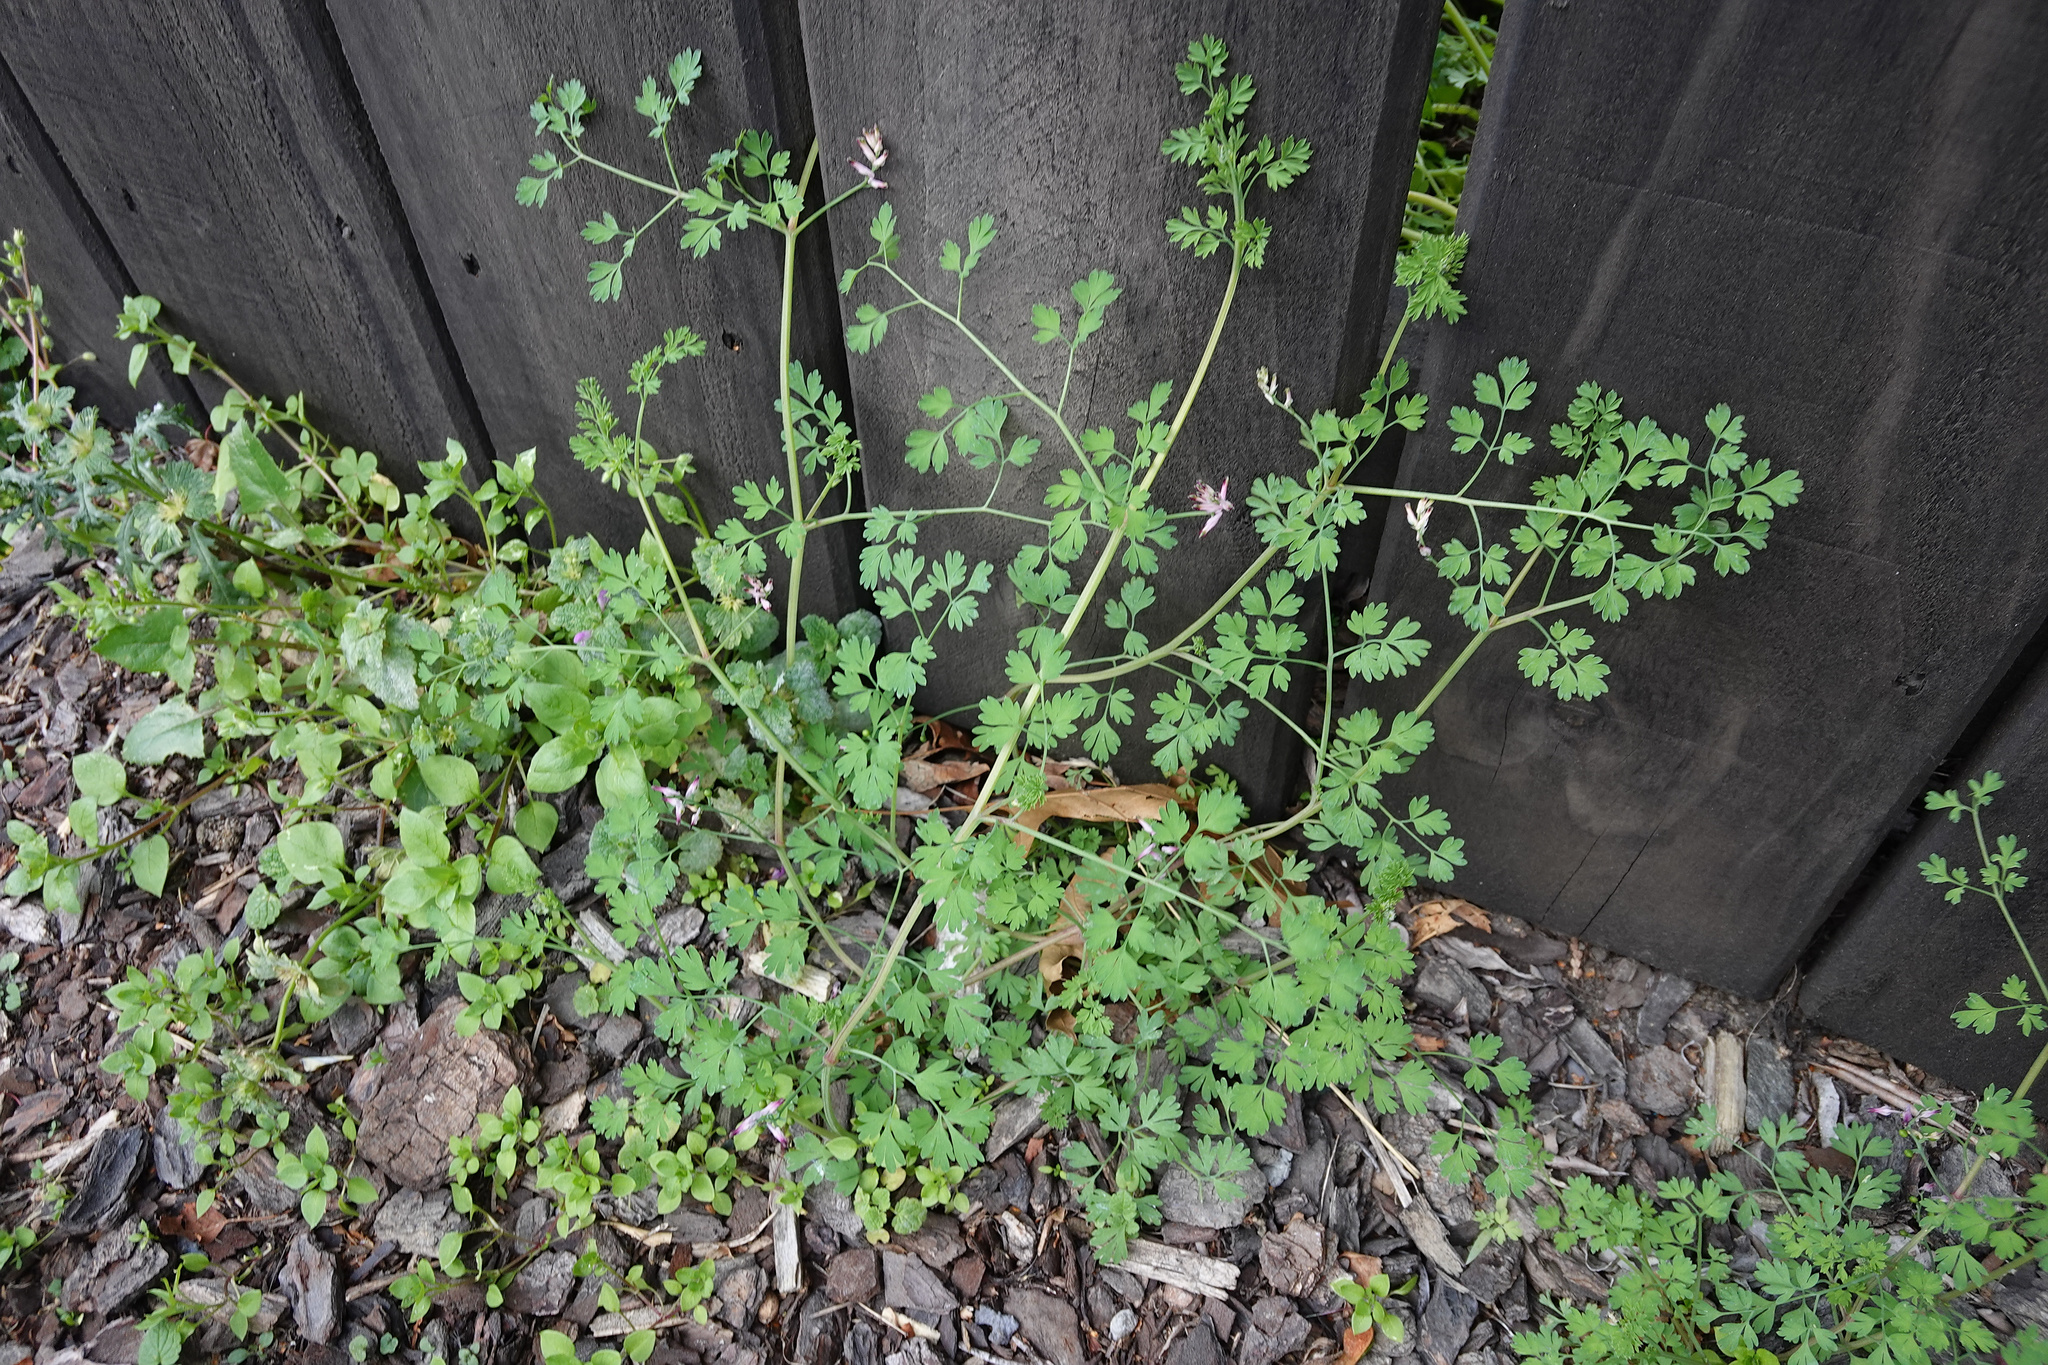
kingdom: Plantae
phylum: Tracheophyta
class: Magnoliopsida
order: Ranunculales
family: Papaveraceae
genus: Fumaria
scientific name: Fumaria muralis
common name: Common ramping-fumitory
